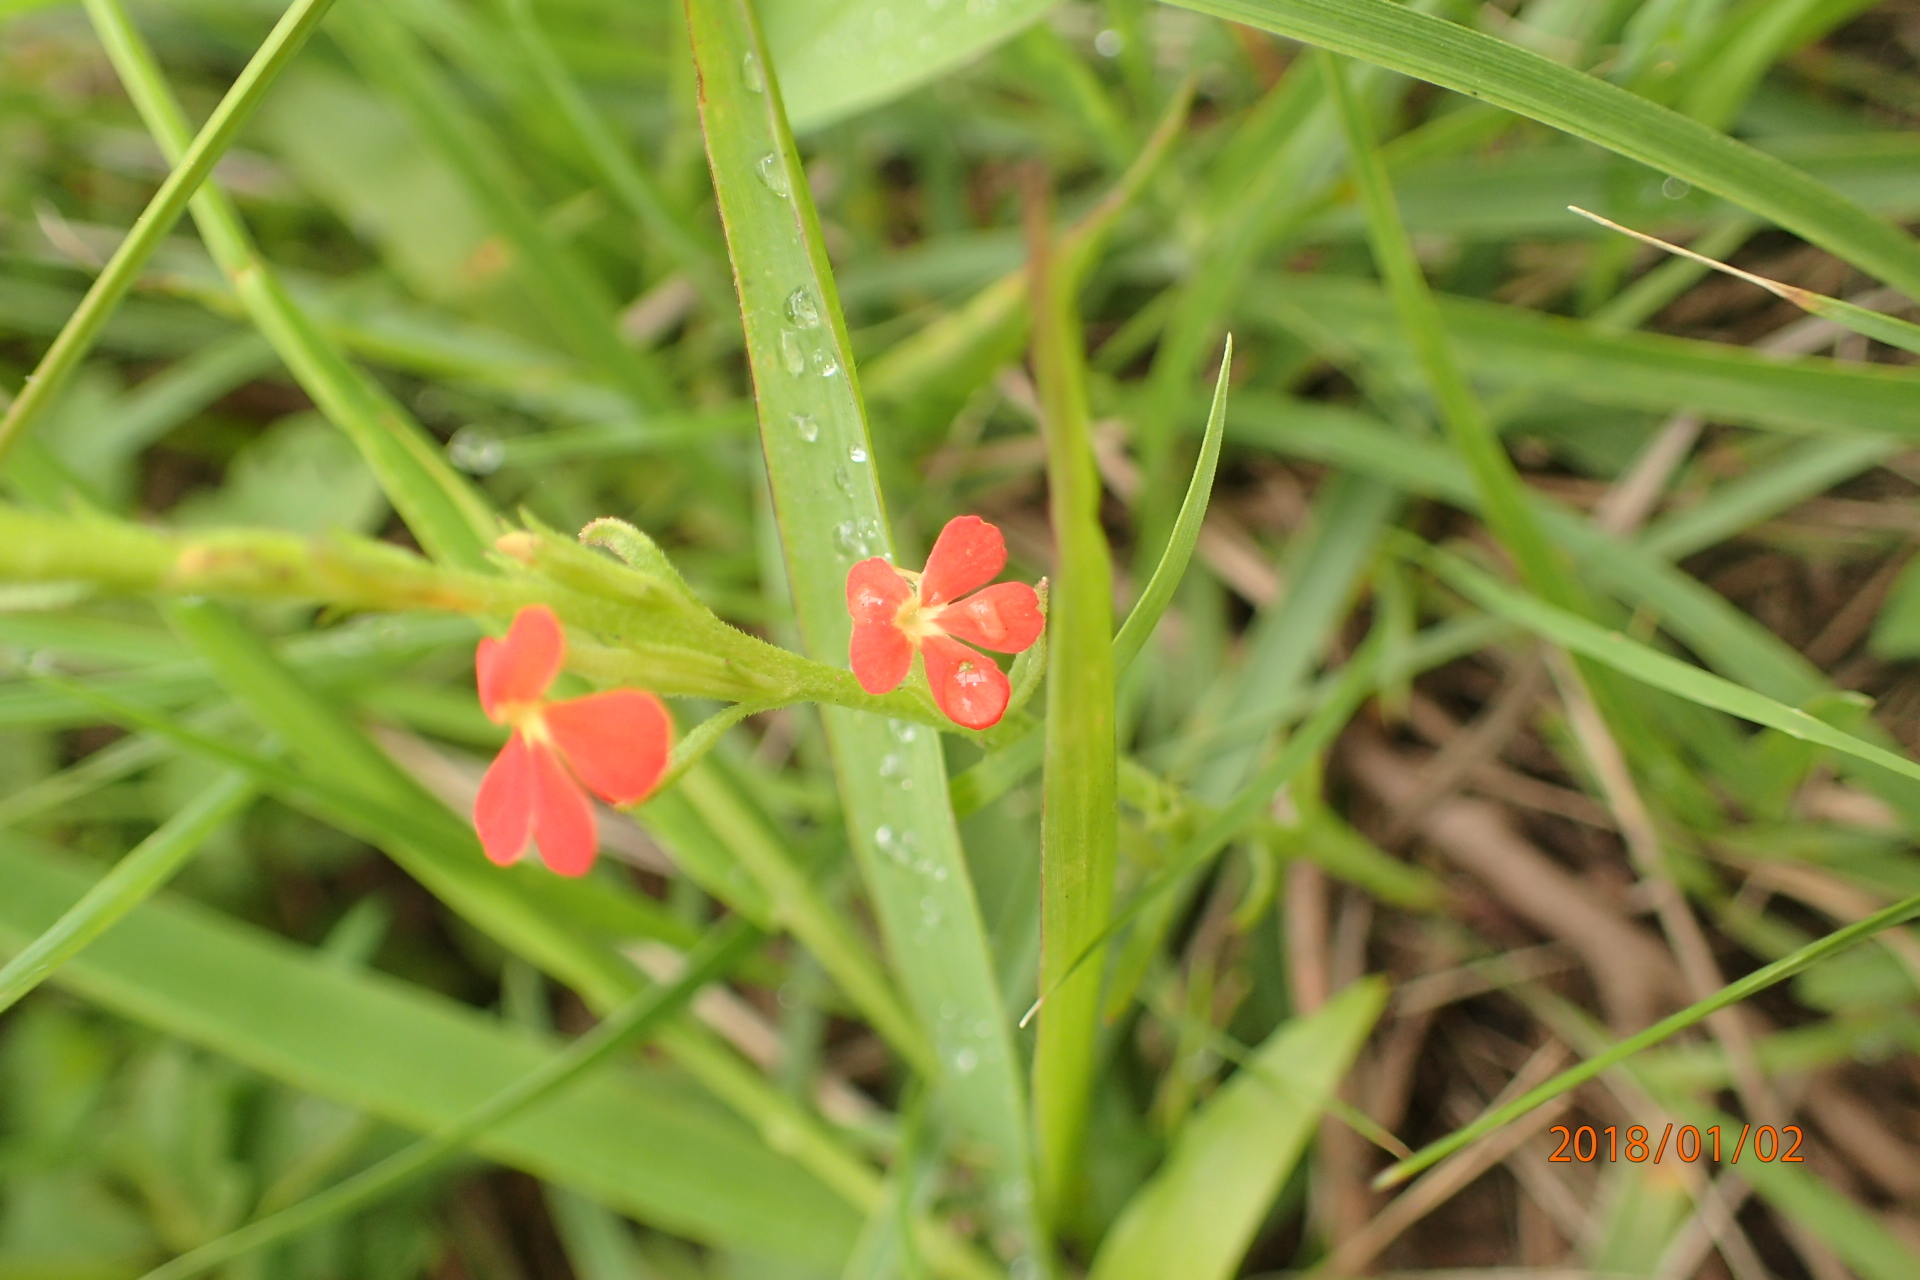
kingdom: Plantae
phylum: Tracheophyta
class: Magnoliopsida
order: Lamiales
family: Orobanchaceae
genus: Striga
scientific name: Striga asiatica
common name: Asiatic witchweed
